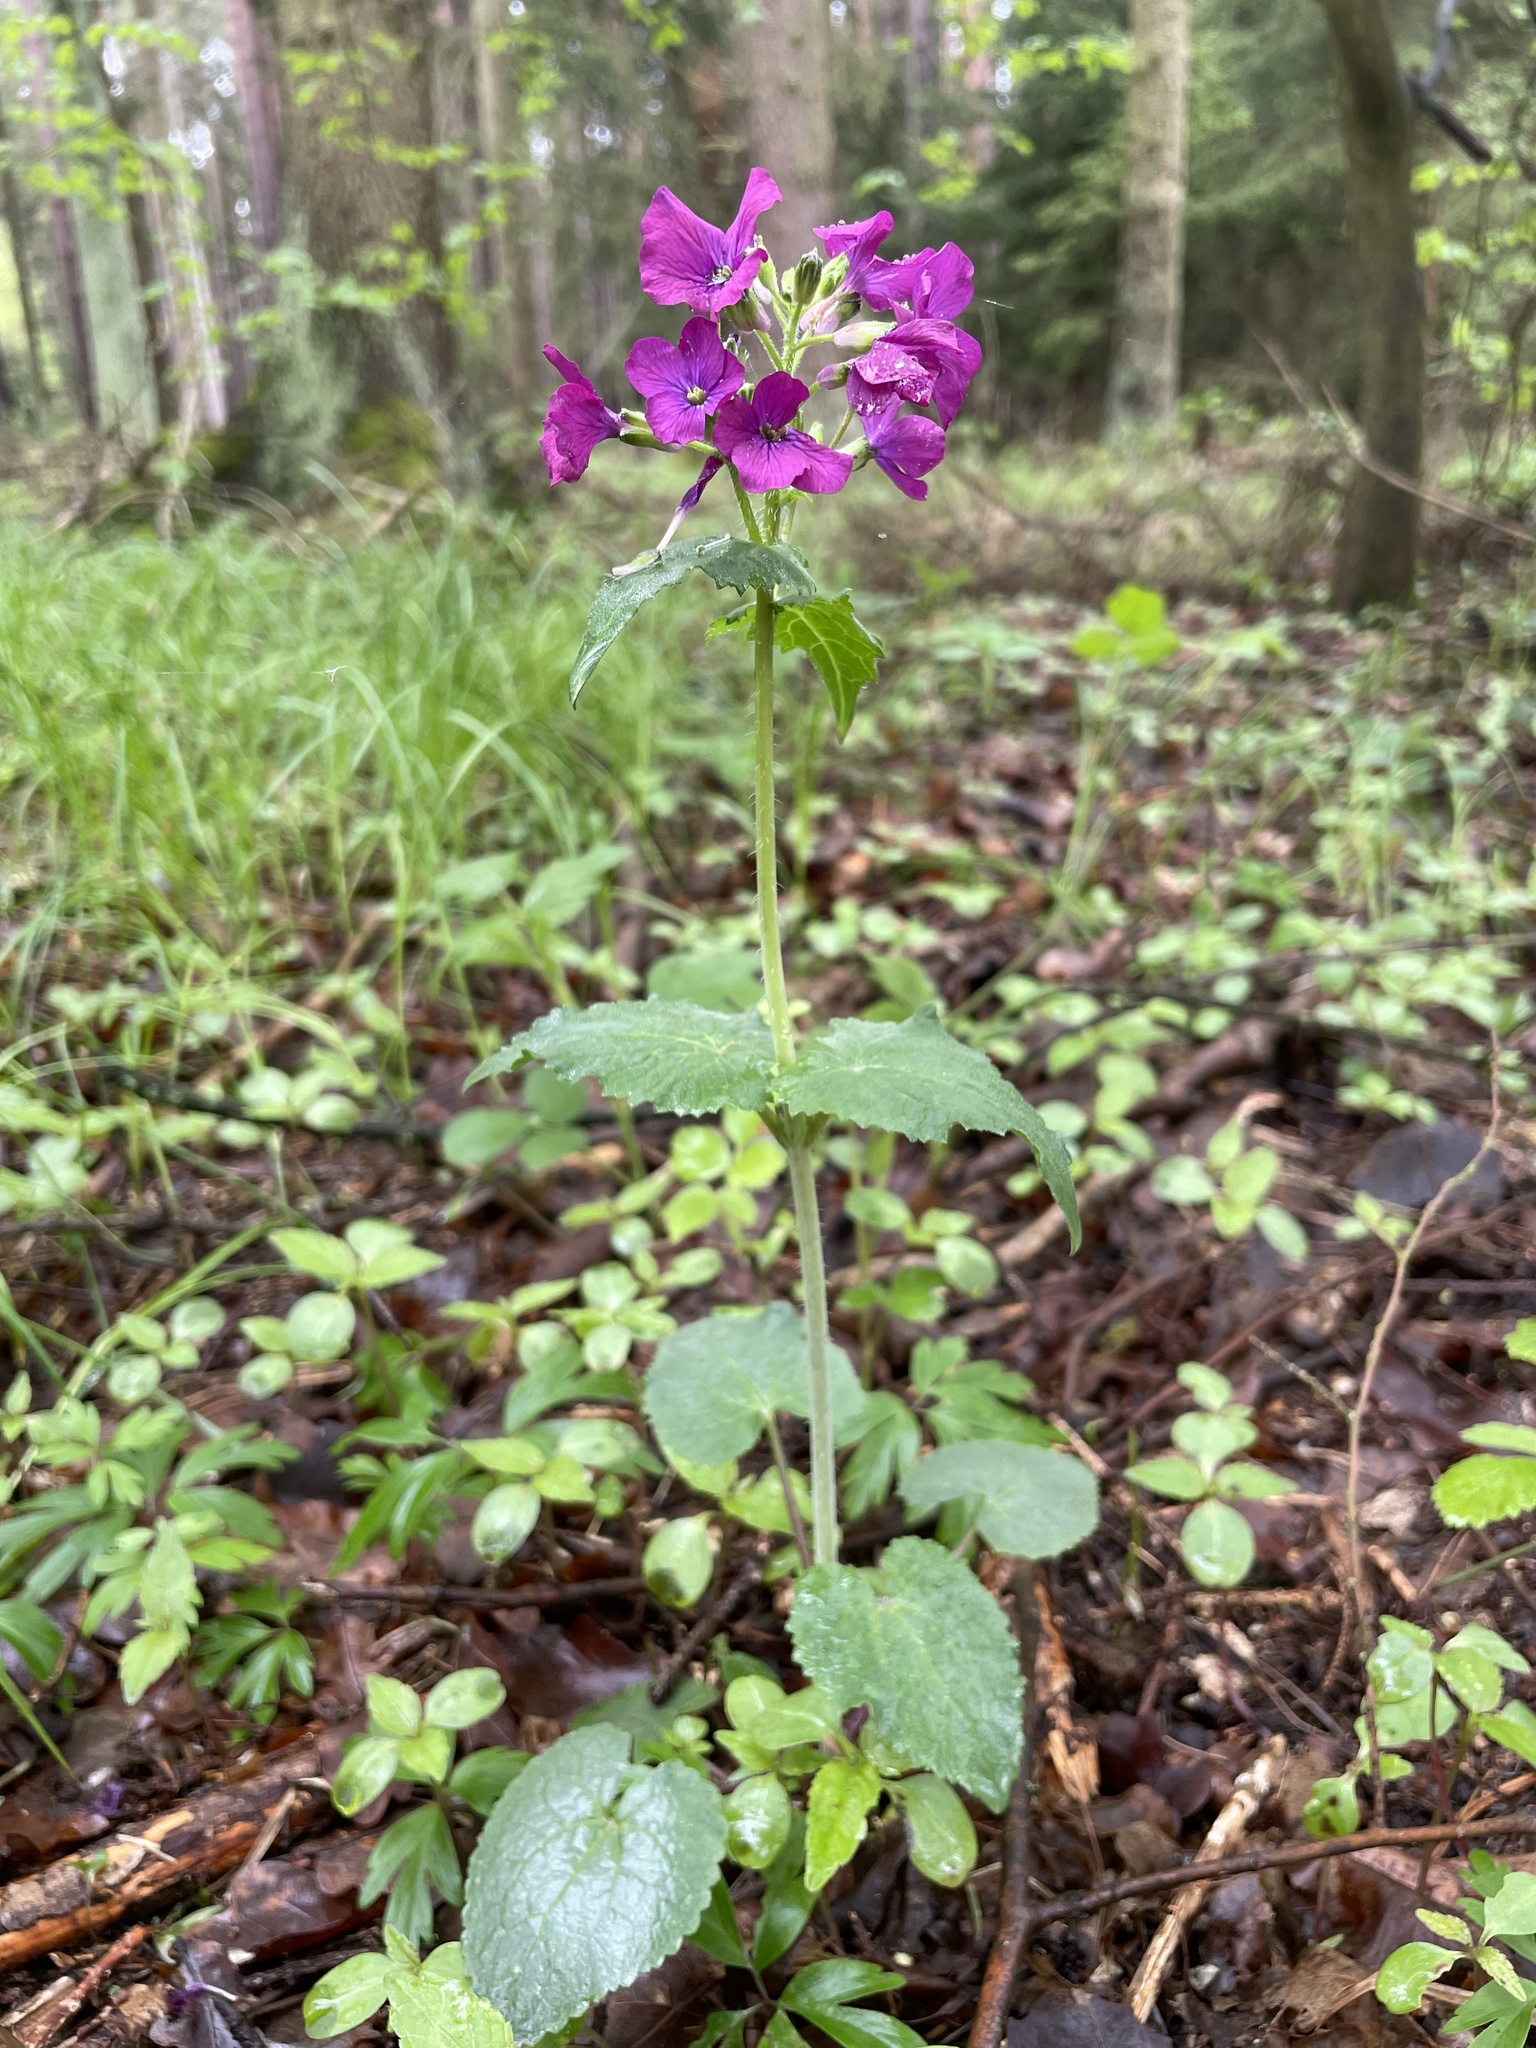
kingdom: Plantae
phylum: Tracheophyta
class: Magnoliopsida
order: Brassicales
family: Brassicaceae
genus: Lunaria
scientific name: Lunaria annua
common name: Honesty
